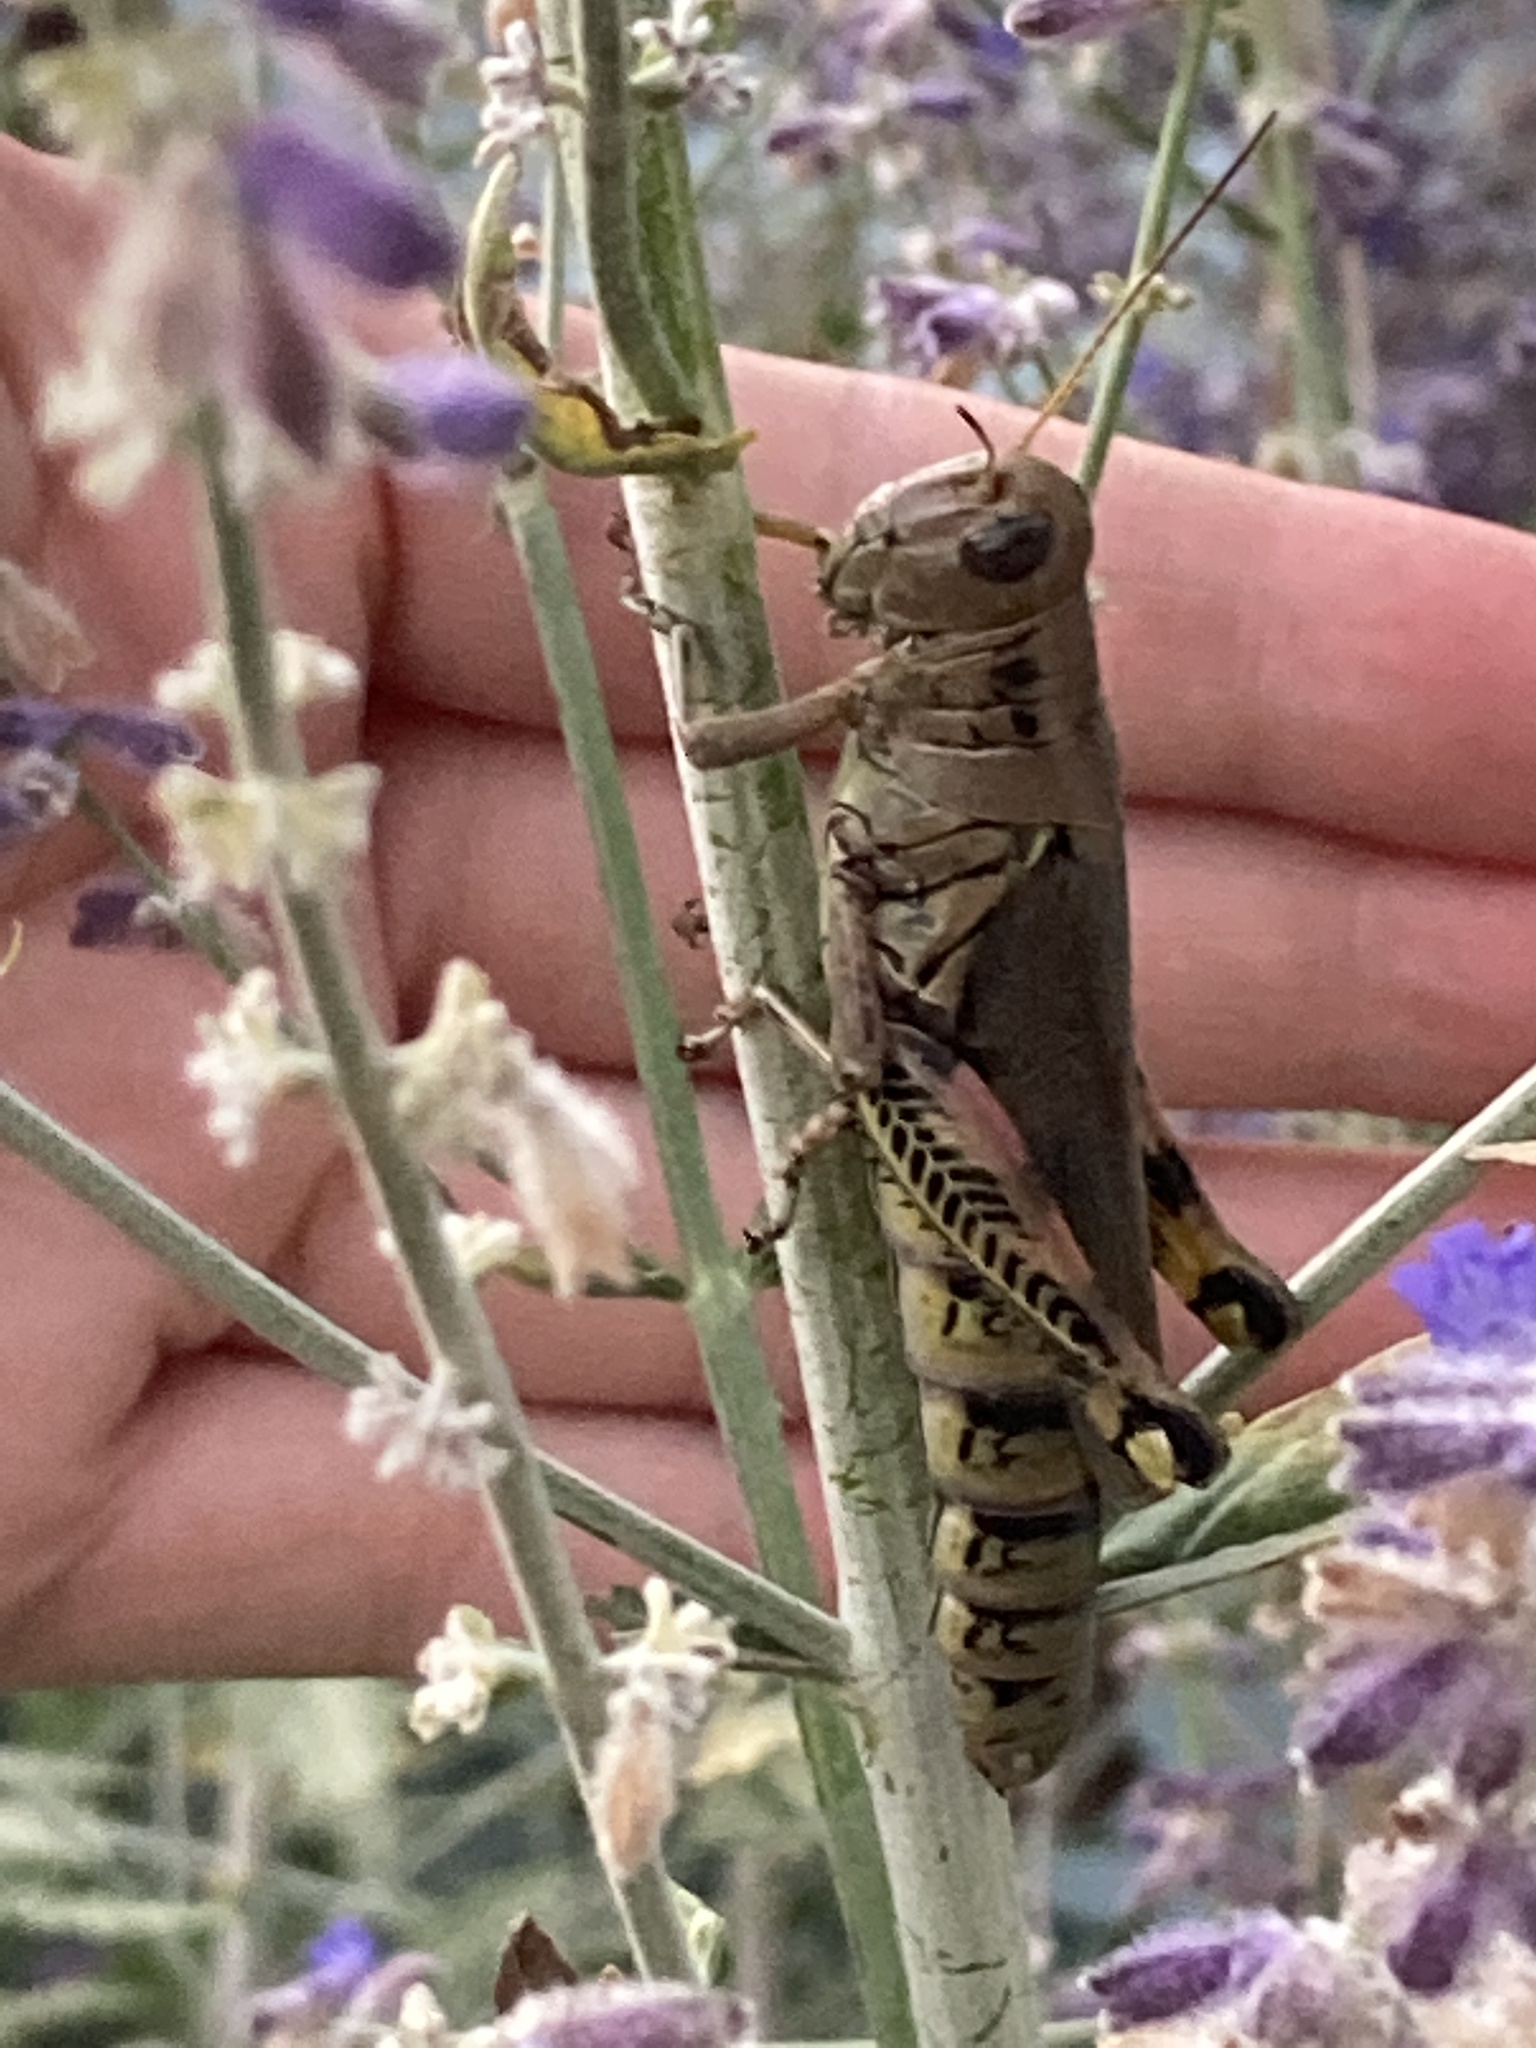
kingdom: Animalia
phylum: Arthropoda
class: Insecta
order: Orthoptera
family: Acrididae
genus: Melanoplus
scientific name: Melanoplus differentialis
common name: Differential grasshopper
